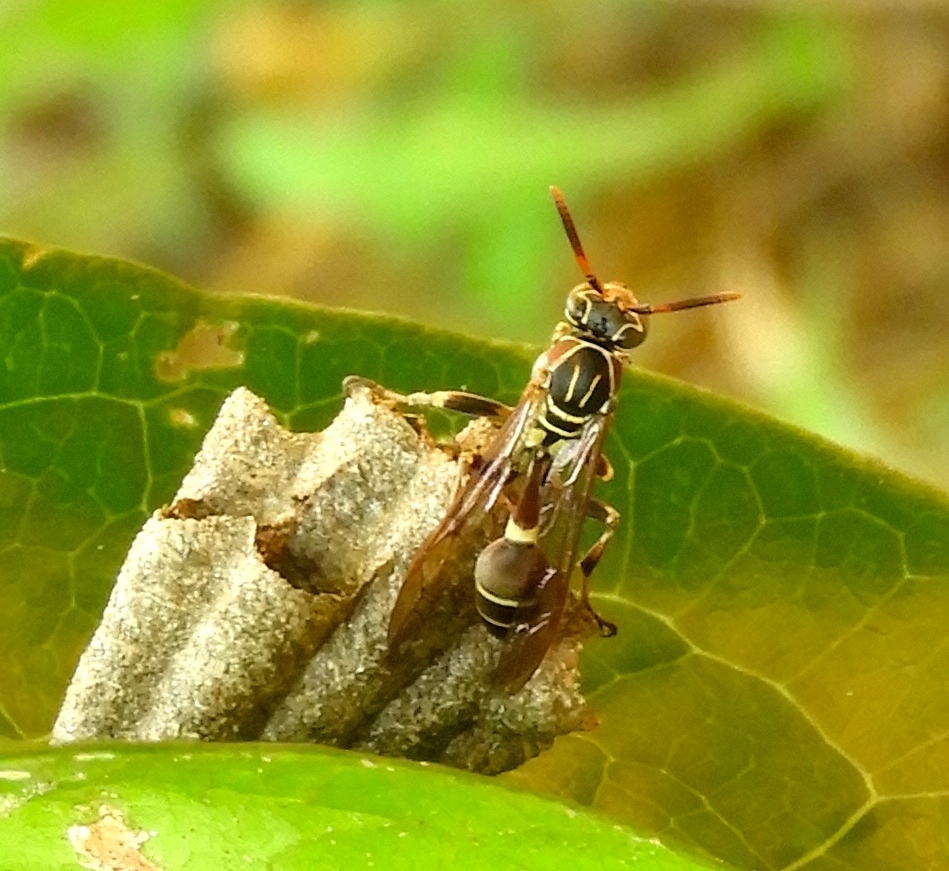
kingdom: Animalia
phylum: Arthropoda
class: Insecta
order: Hymenoptera
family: Vespidae
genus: Mischocyttarus
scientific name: Mischocyttarus mexicanus
